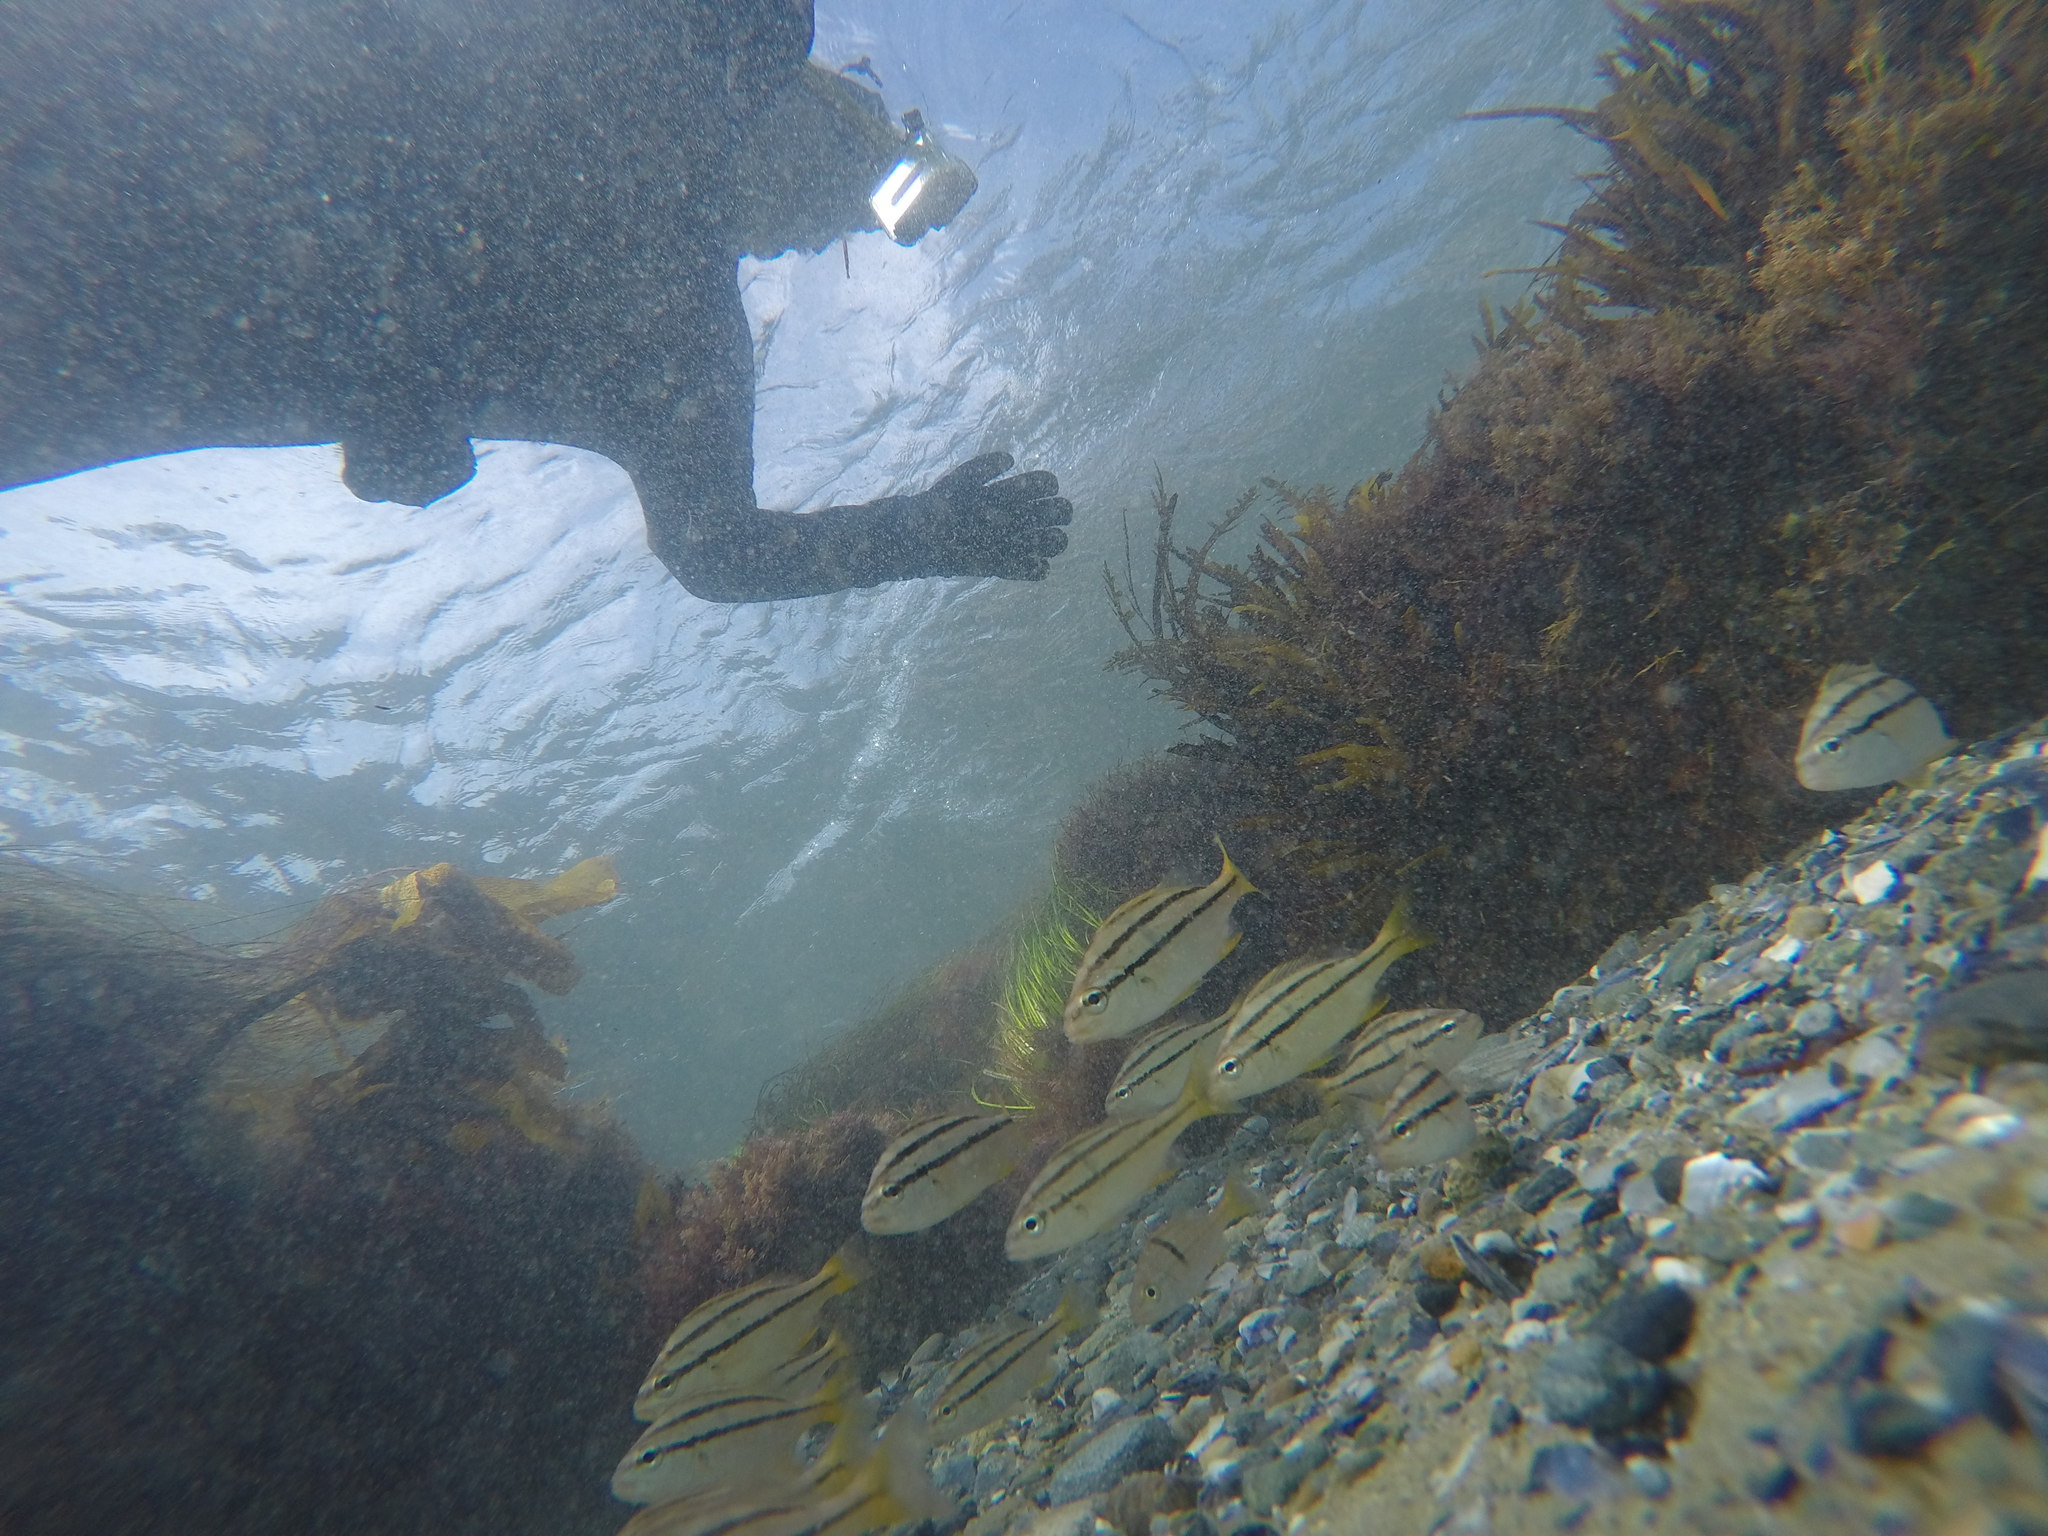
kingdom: Animalia
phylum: Chordata
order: Perciformes
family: Haemulidae
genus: Anisotremus
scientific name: Anisotremus davidsonii
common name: Grunt
